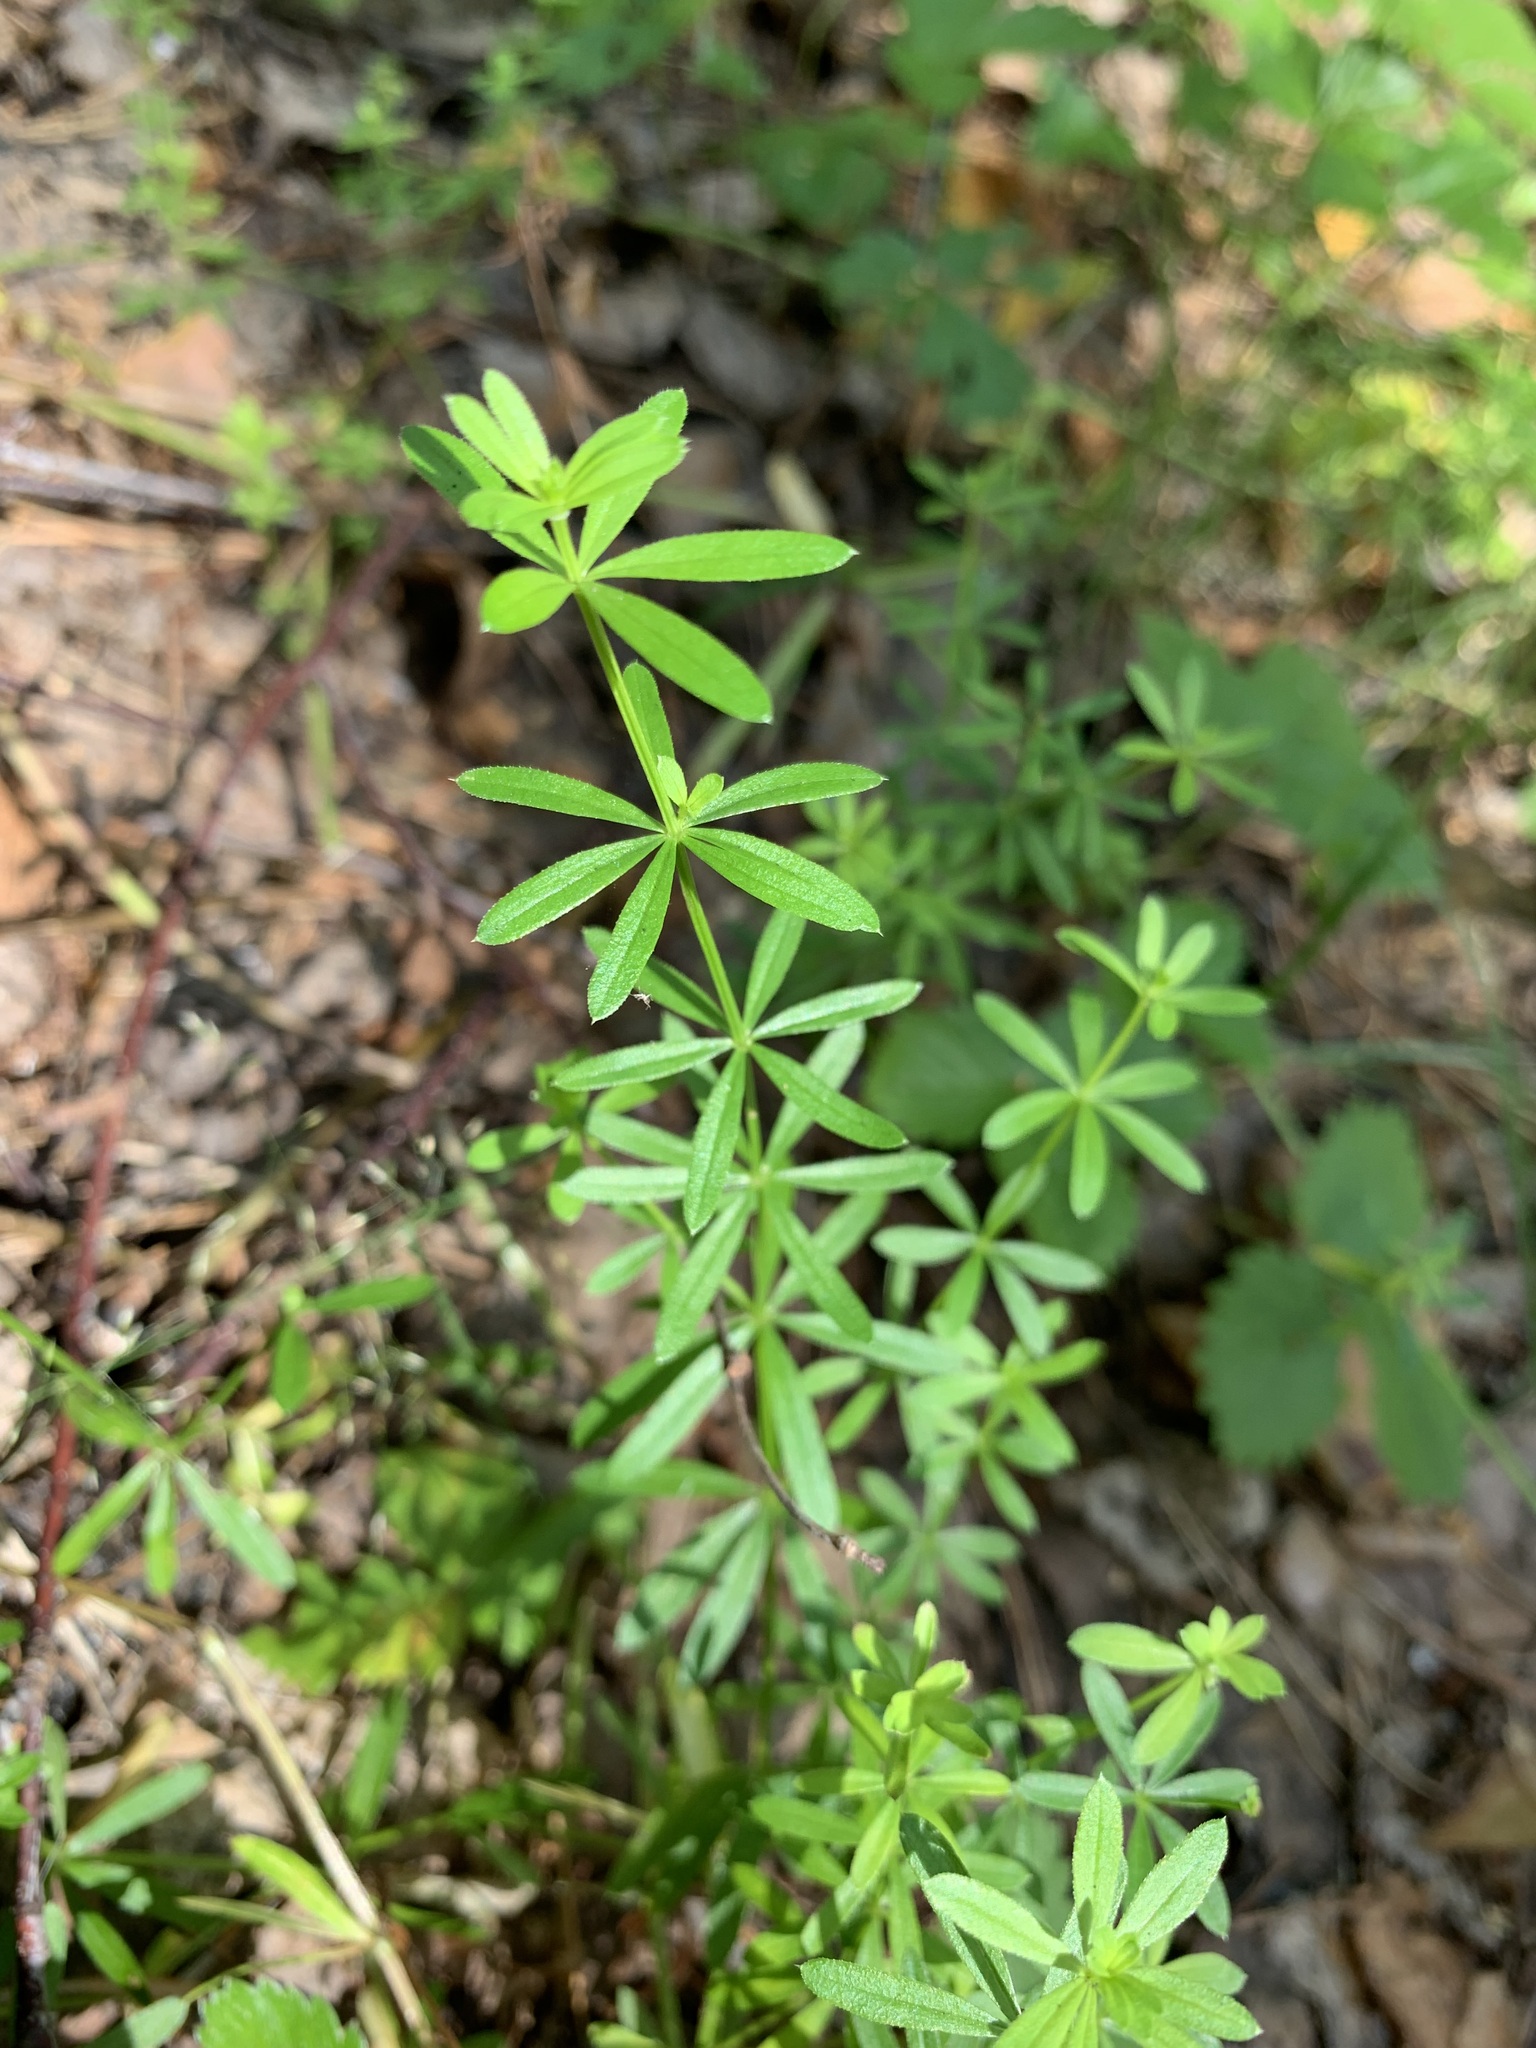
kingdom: Plantae
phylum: Tracheophyta
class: Magnoliopsida
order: Gentianales
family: Rubiaceae
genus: Galium
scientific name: Galium mollugo
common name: Hedge bedstraw
